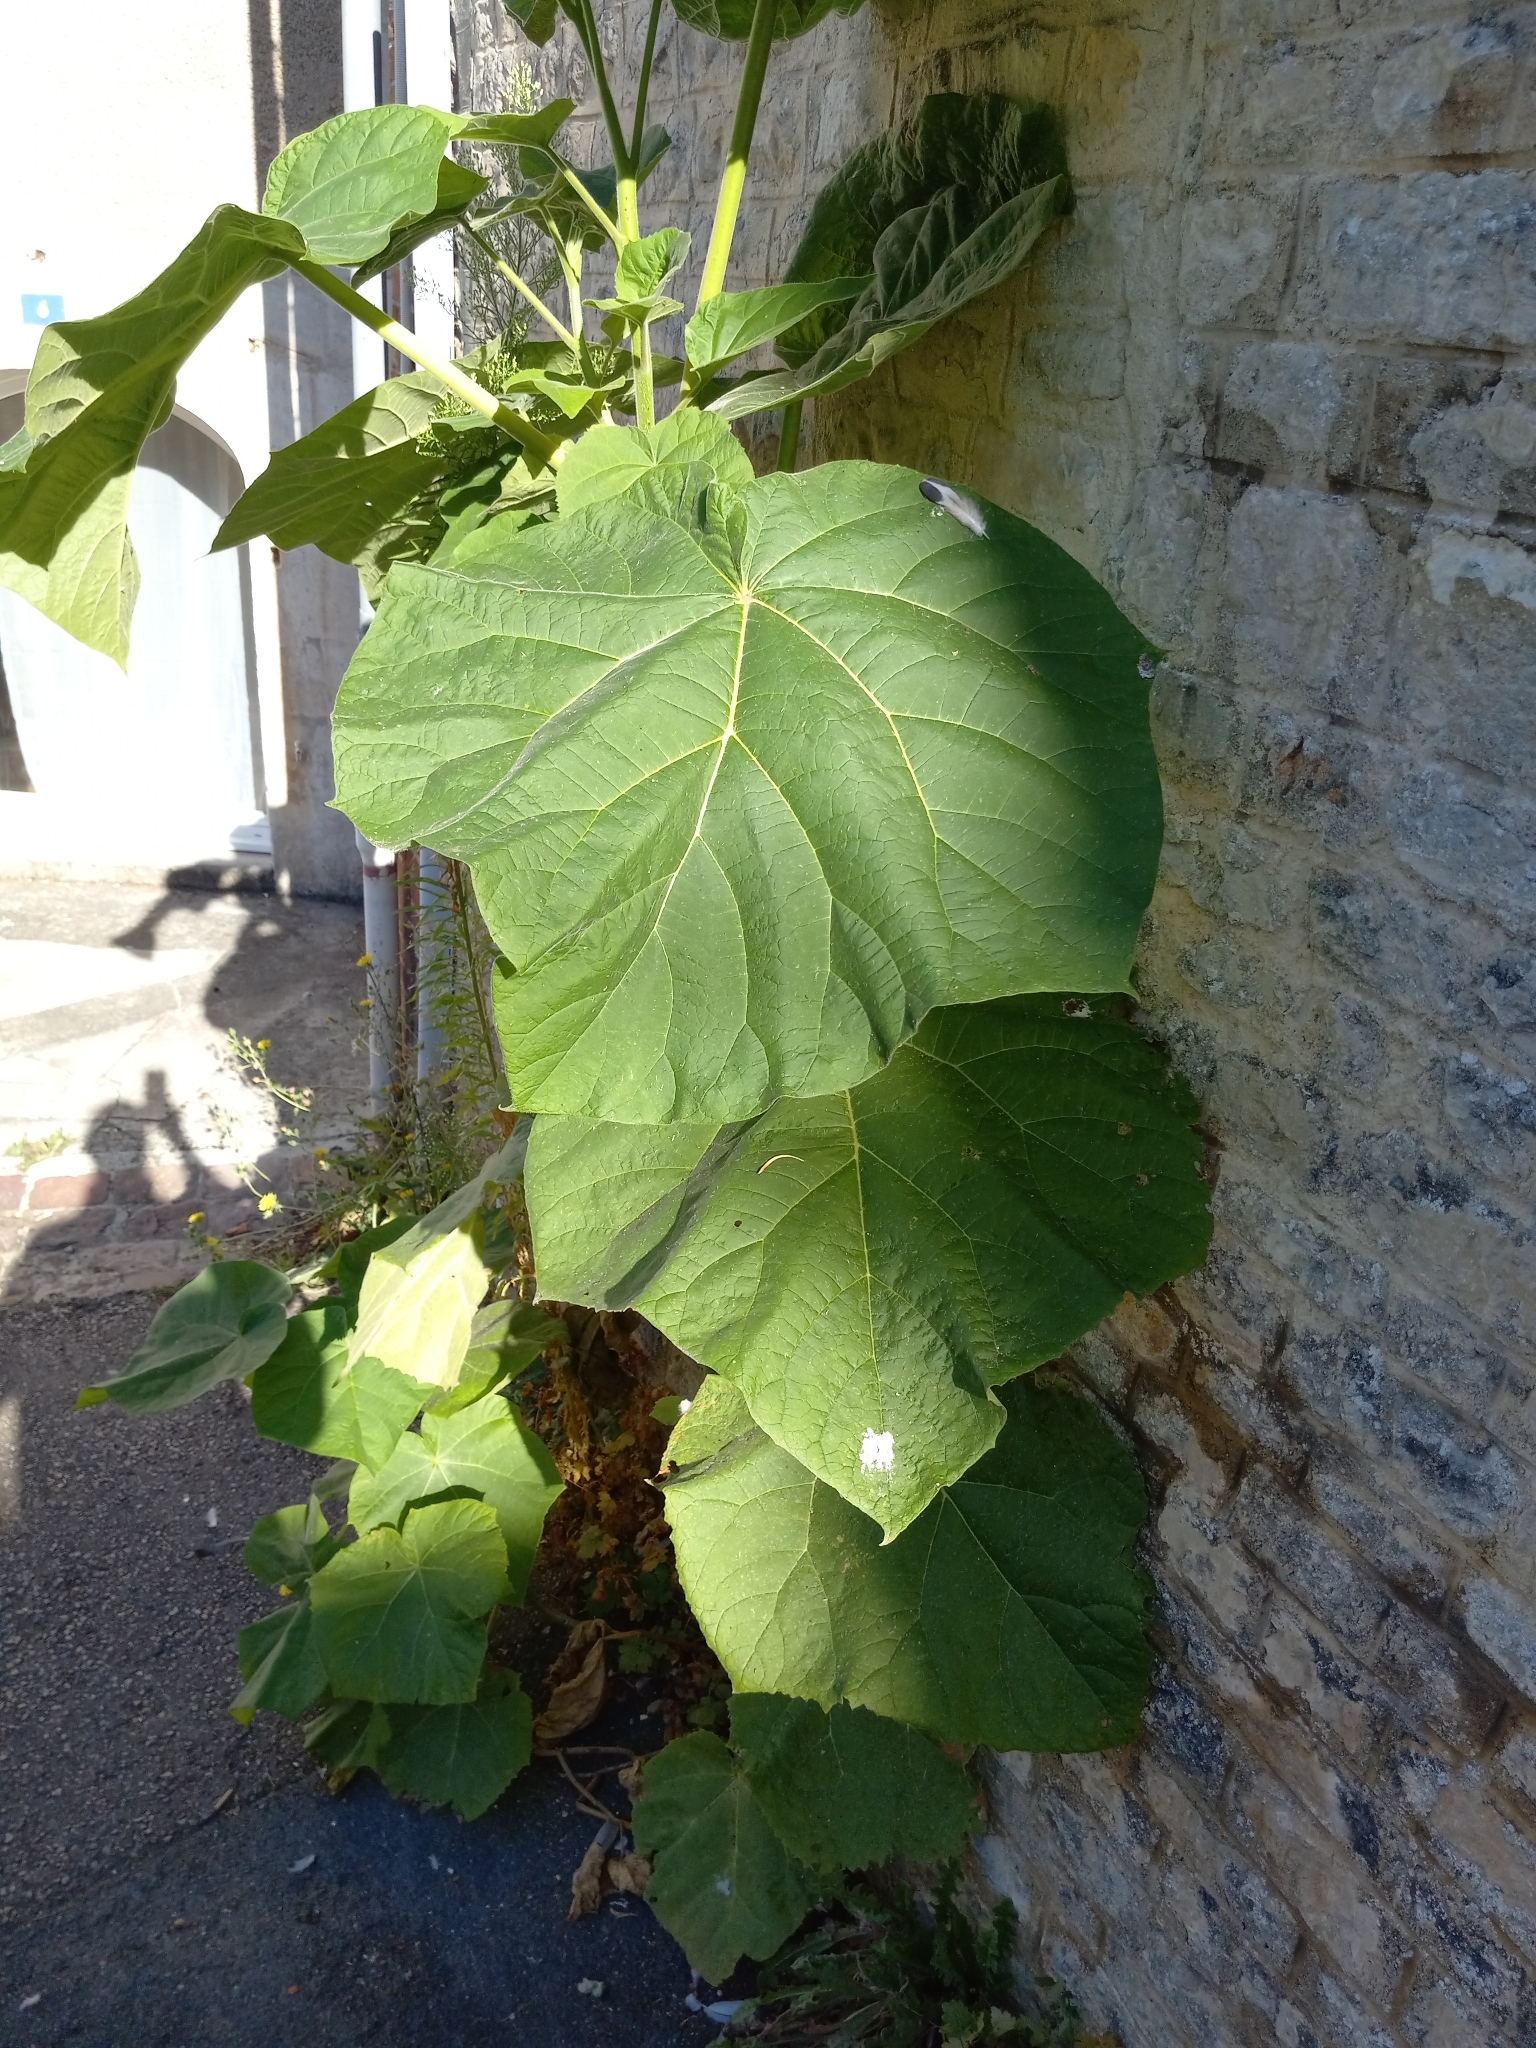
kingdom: Plantae
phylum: Tracheophyta
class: Magnoliopsida
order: Lamiales
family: Paulowniaceae
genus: Paulownia
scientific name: Paulownia tomentosa
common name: Foxglove-tree
